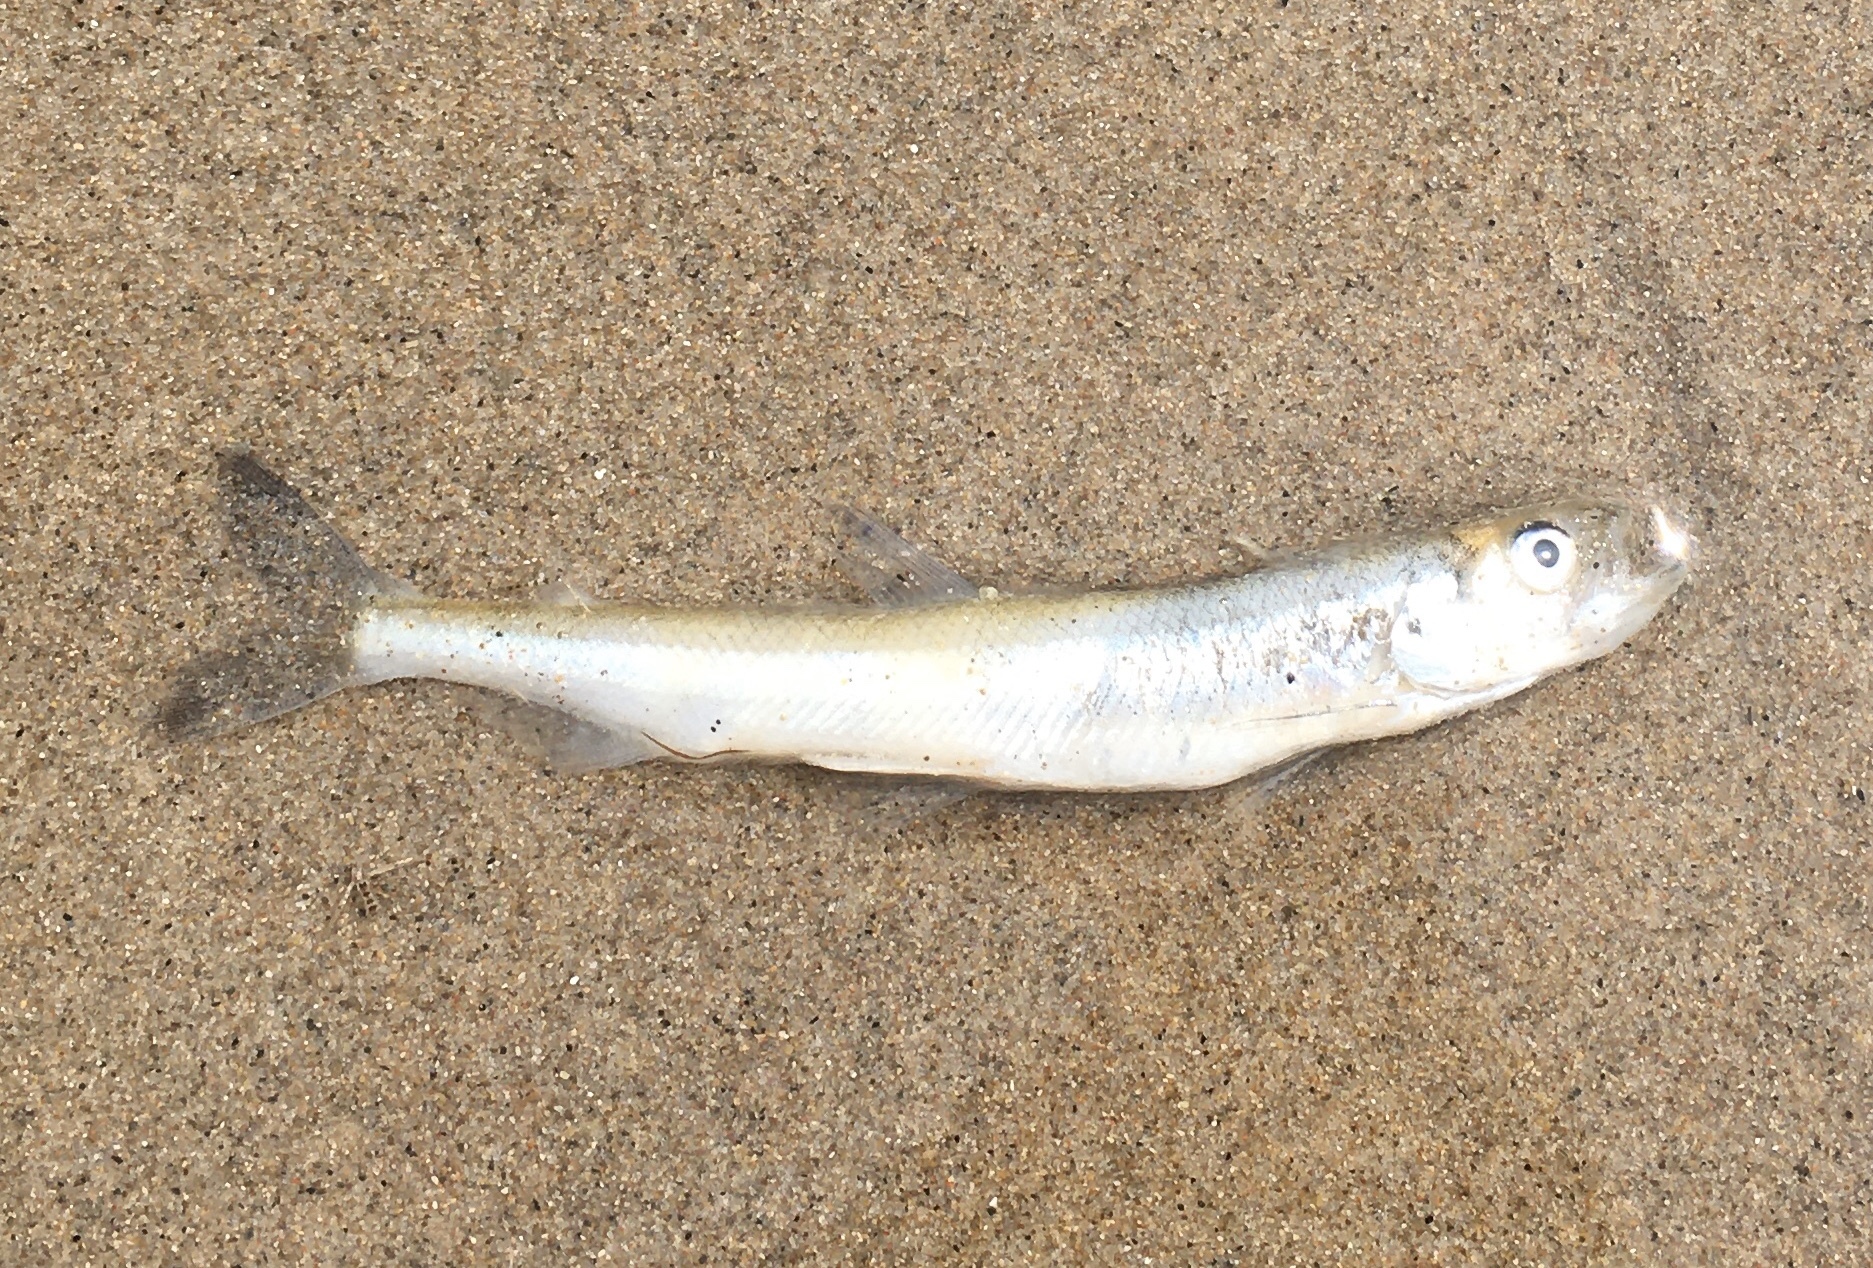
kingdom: Animalia
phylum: Chordata
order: Osmeriformes
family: Osmeridae
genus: Osmerus
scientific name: Osmerus mordax
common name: Rainbow smelt
